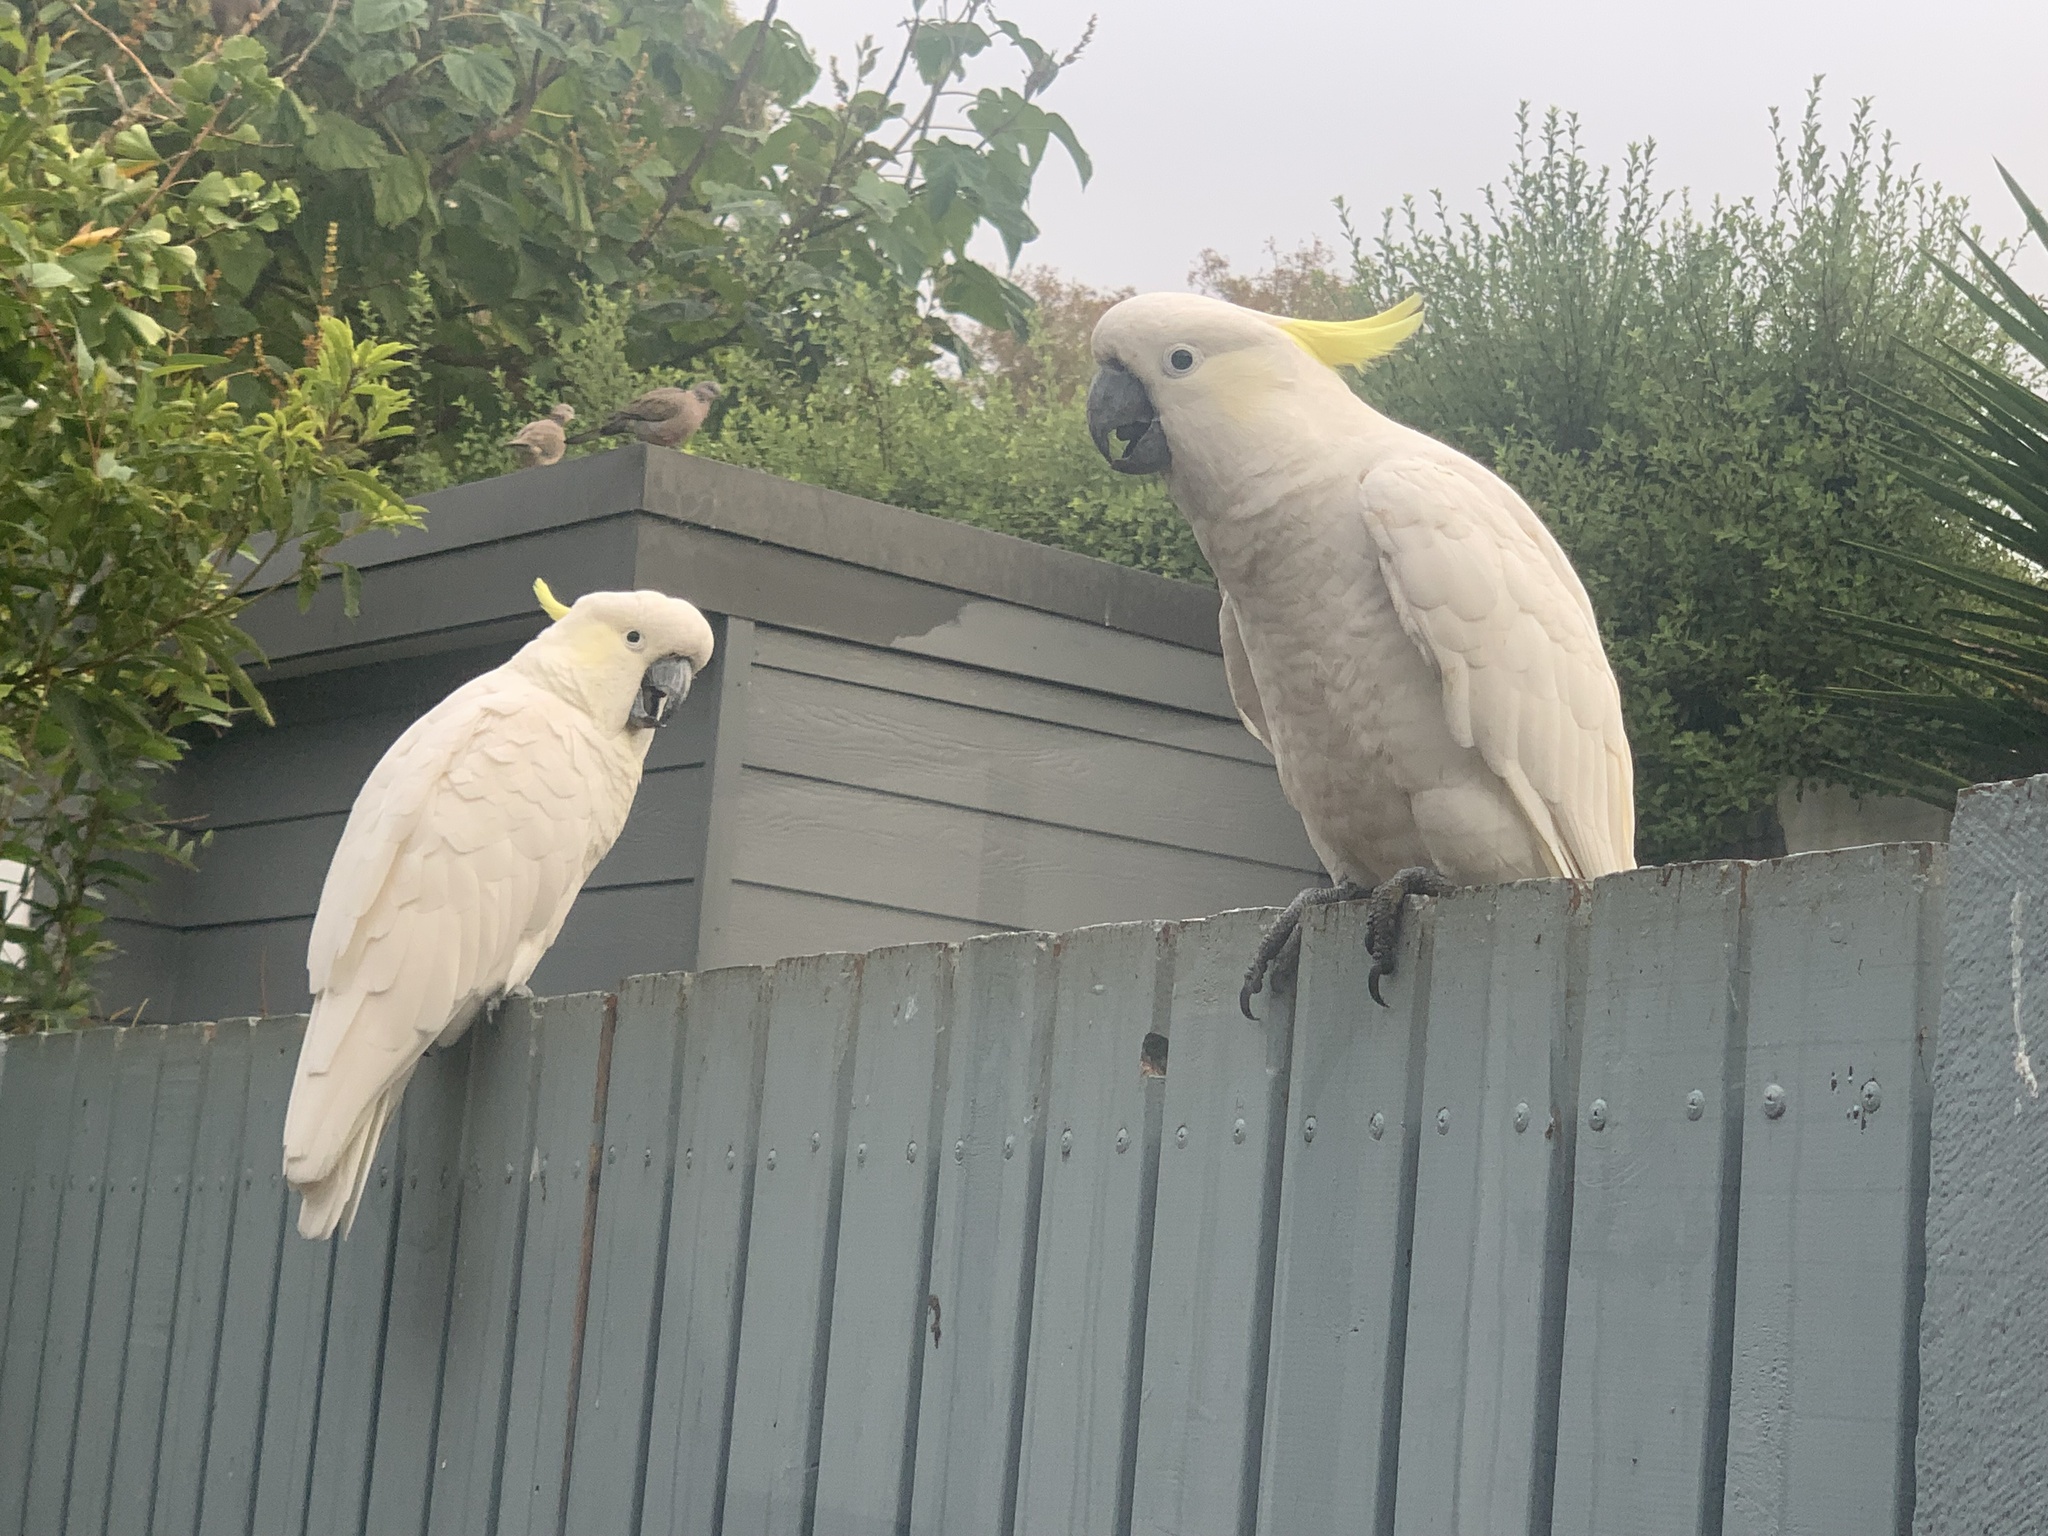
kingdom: Animalia
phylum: Chordata
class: Aves
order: Psittaciformes
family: Psittacidae
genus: Cacatua
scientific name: Cacatua galerita
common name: Sulphur-crested cockatoo
